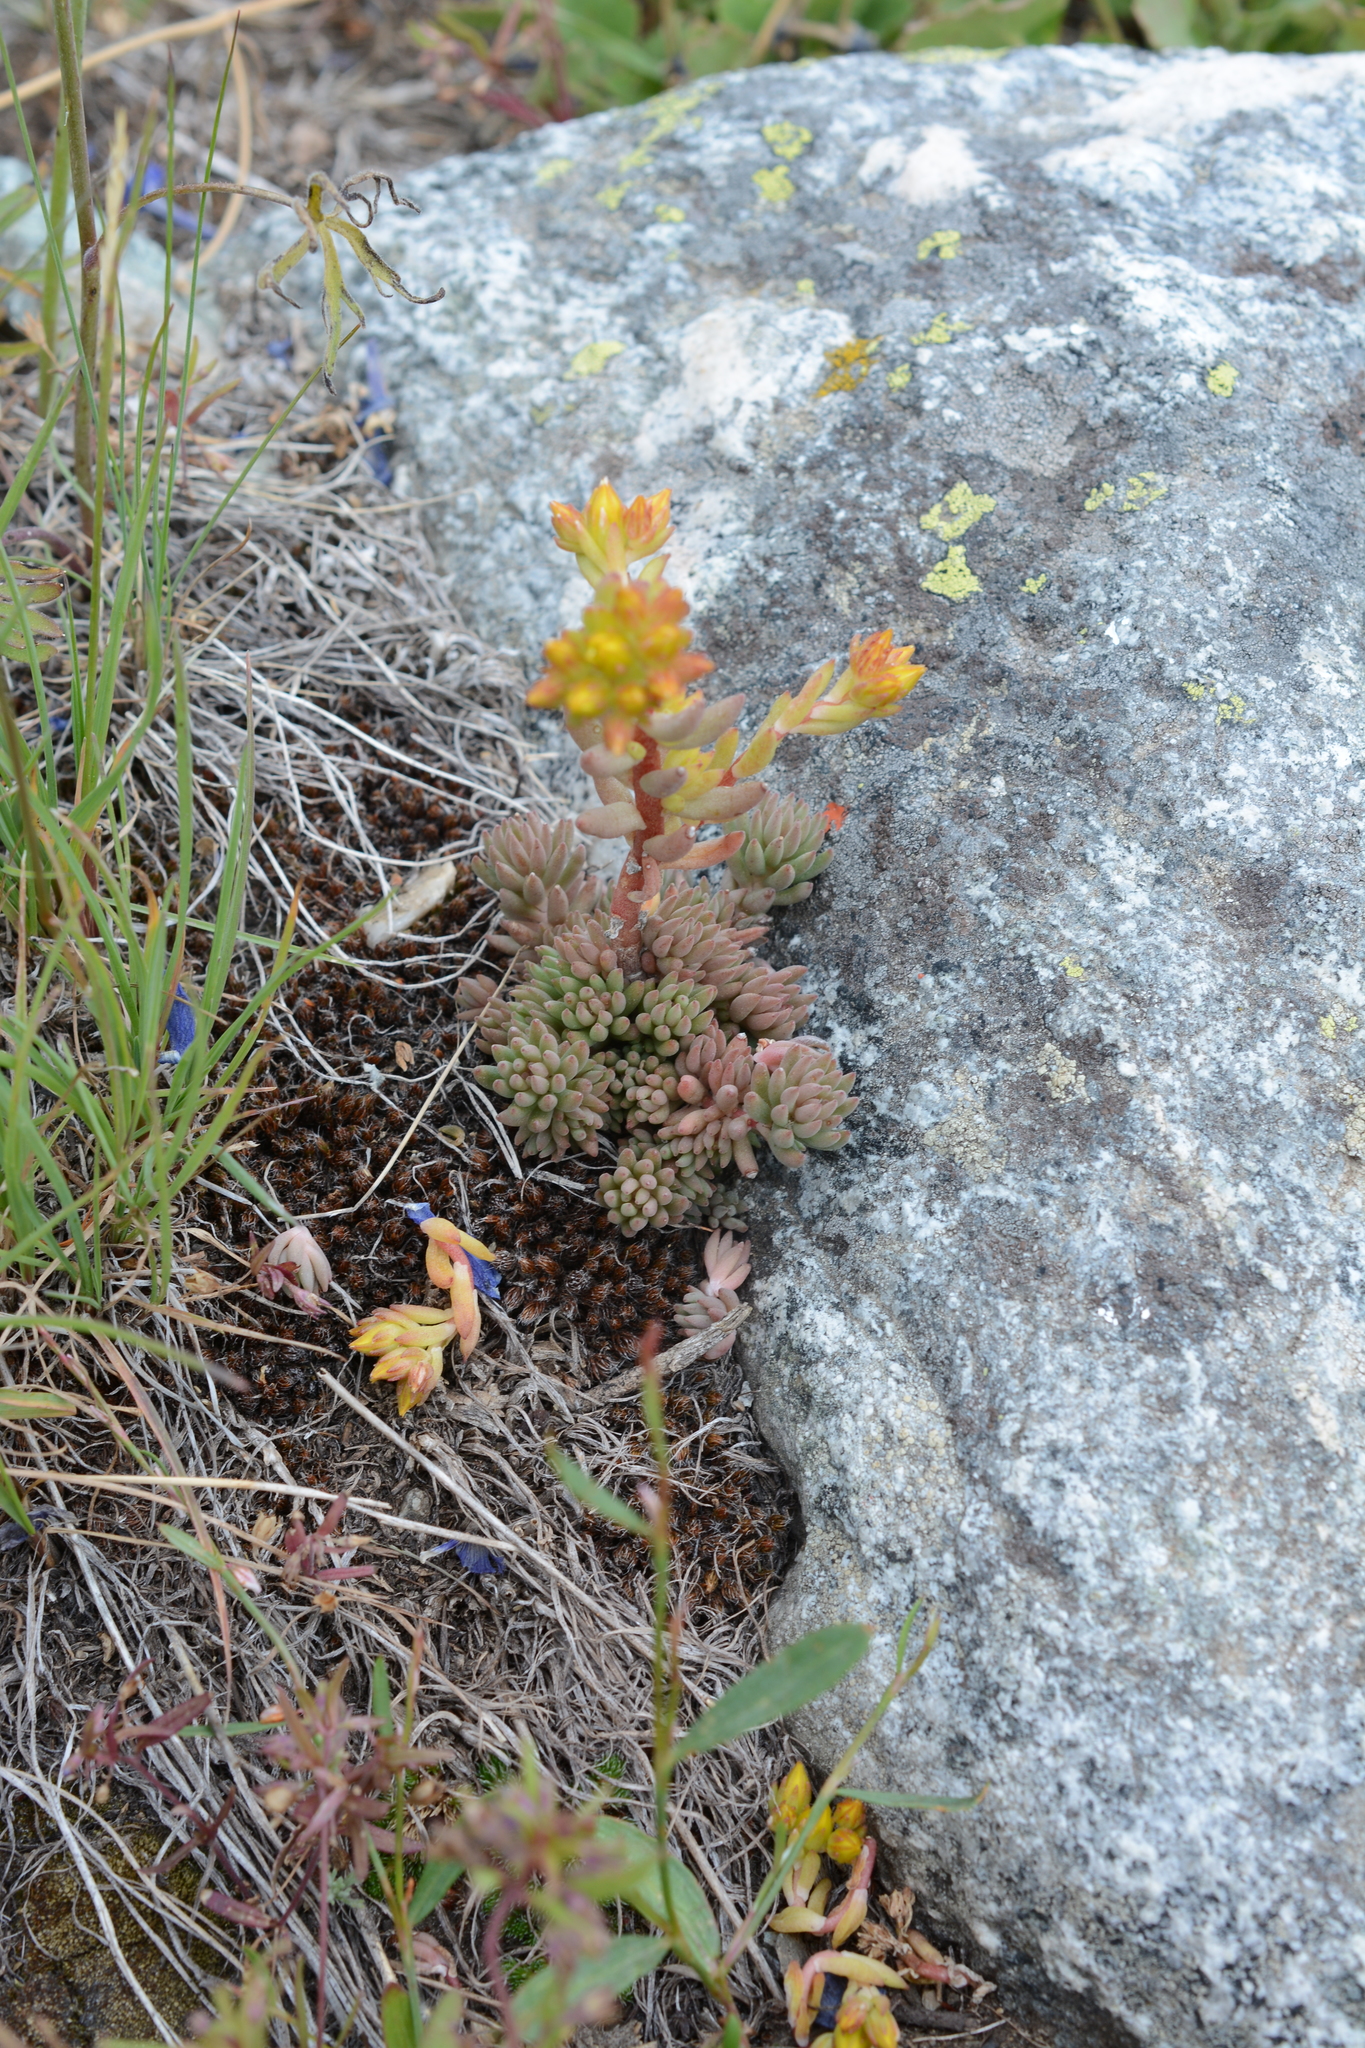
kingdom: Plantae
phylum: Tracheophyta
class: Magnoliopsida
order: Saxifragales
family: Crassulaceae
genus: Sedum
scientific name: Sedum lanceolatum
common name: Common stonecrop
